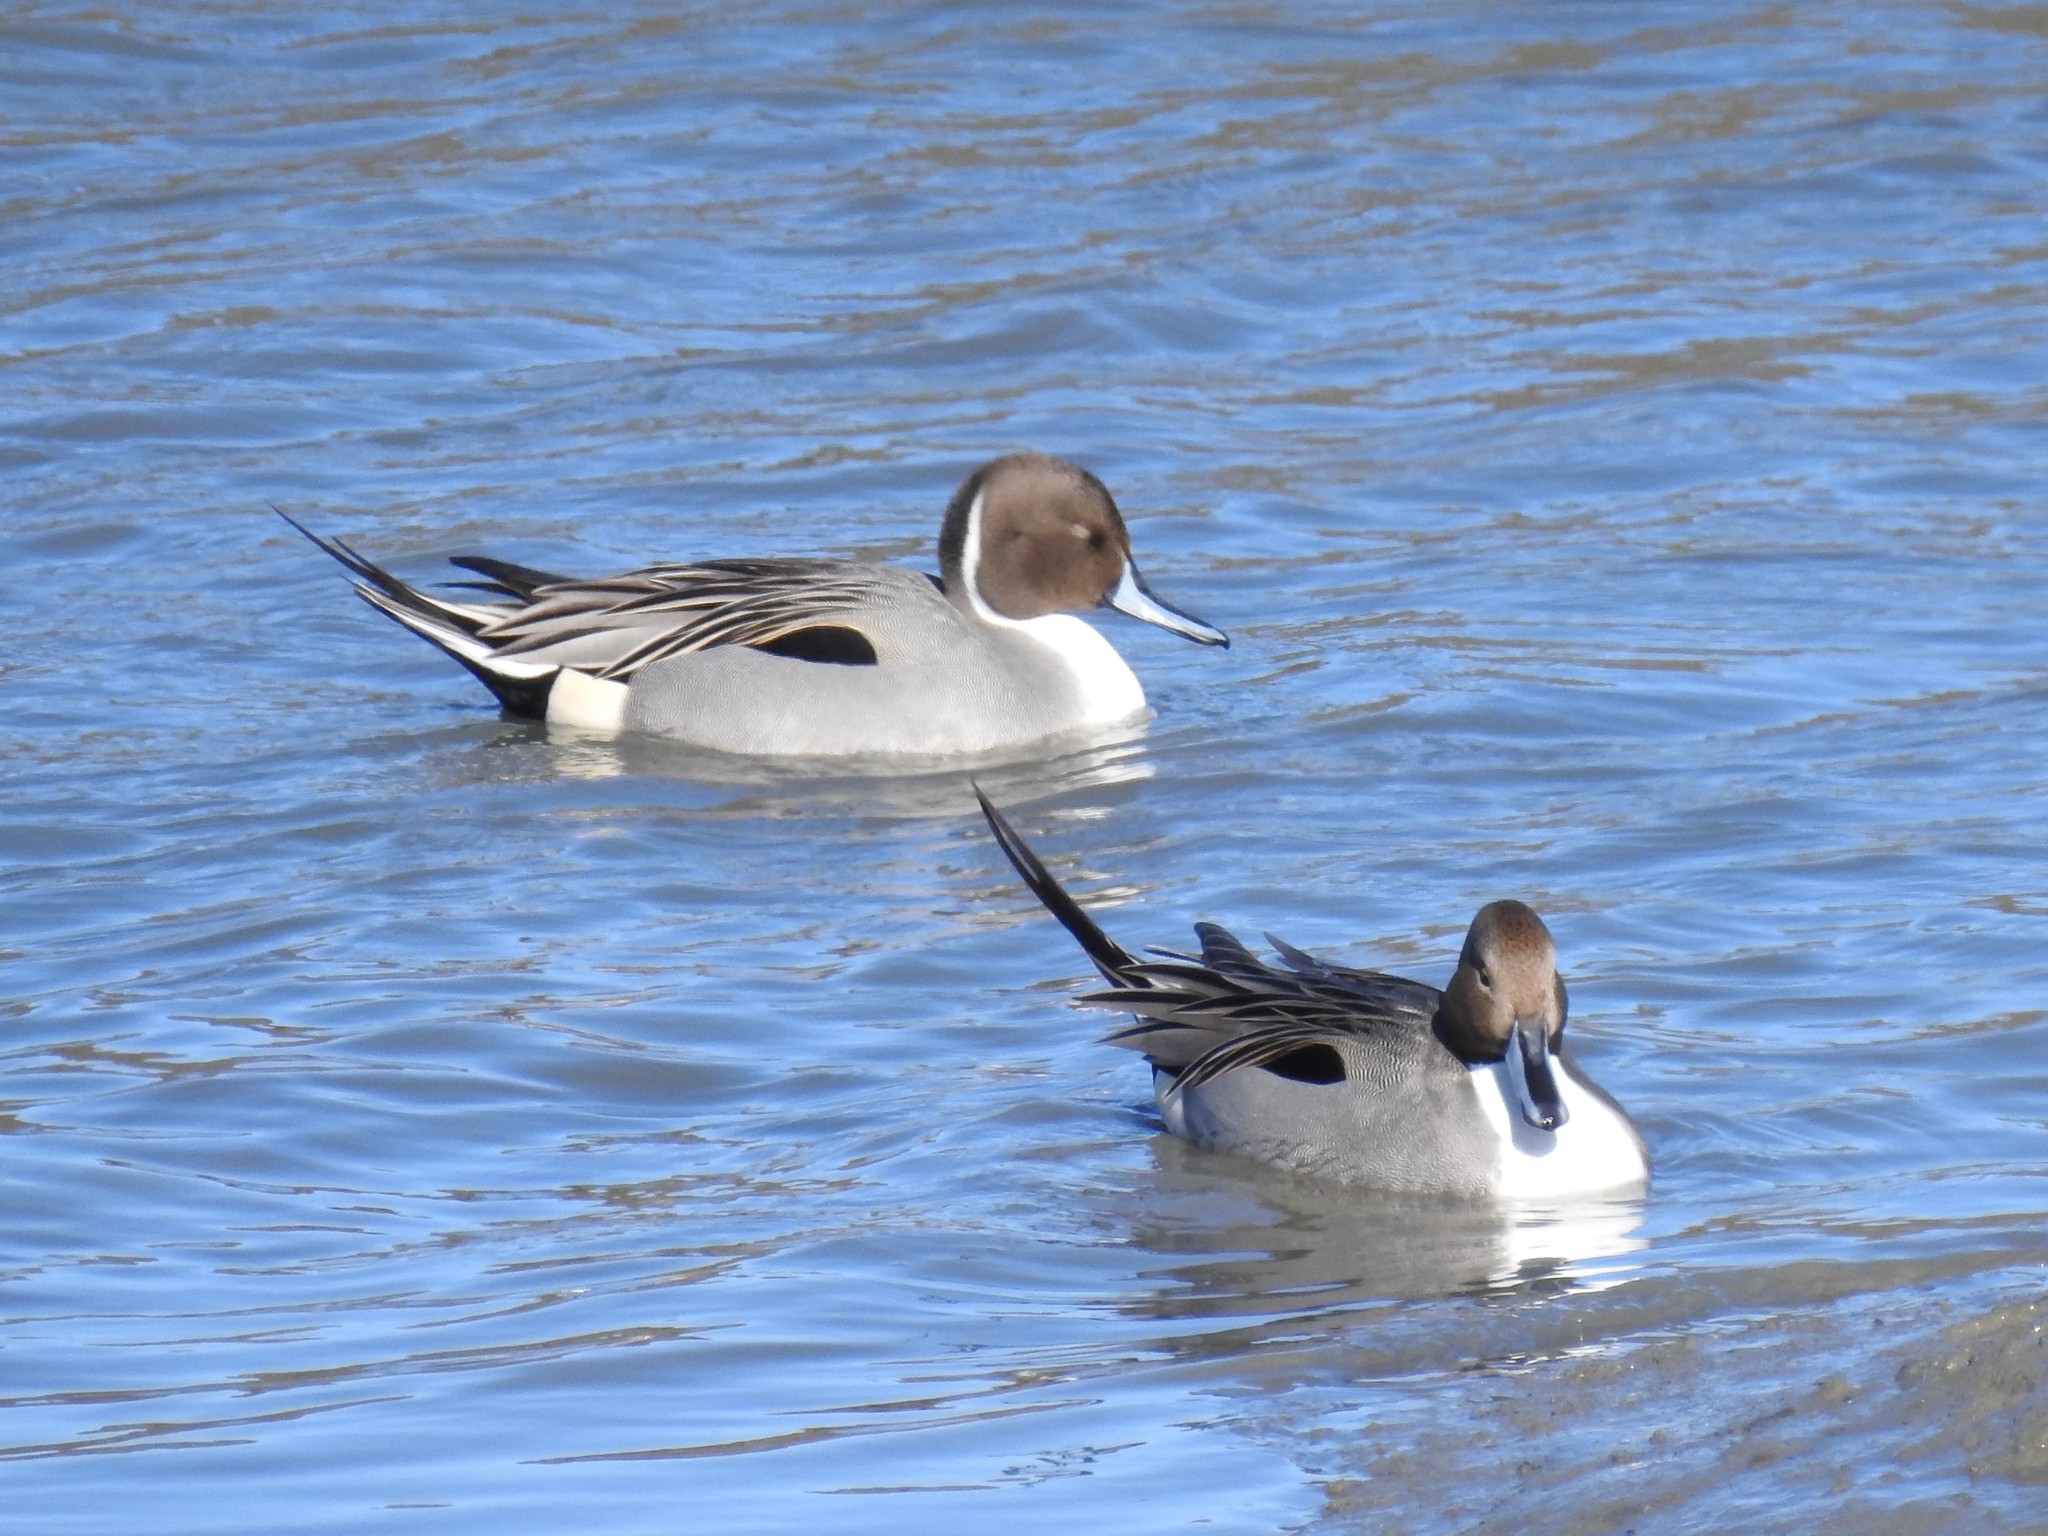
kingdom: Animalia
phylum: Chordata
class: Aves
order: Anseriformes
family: Anatidae
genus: Anas
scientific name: Anas acuta
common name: Northern pintail
